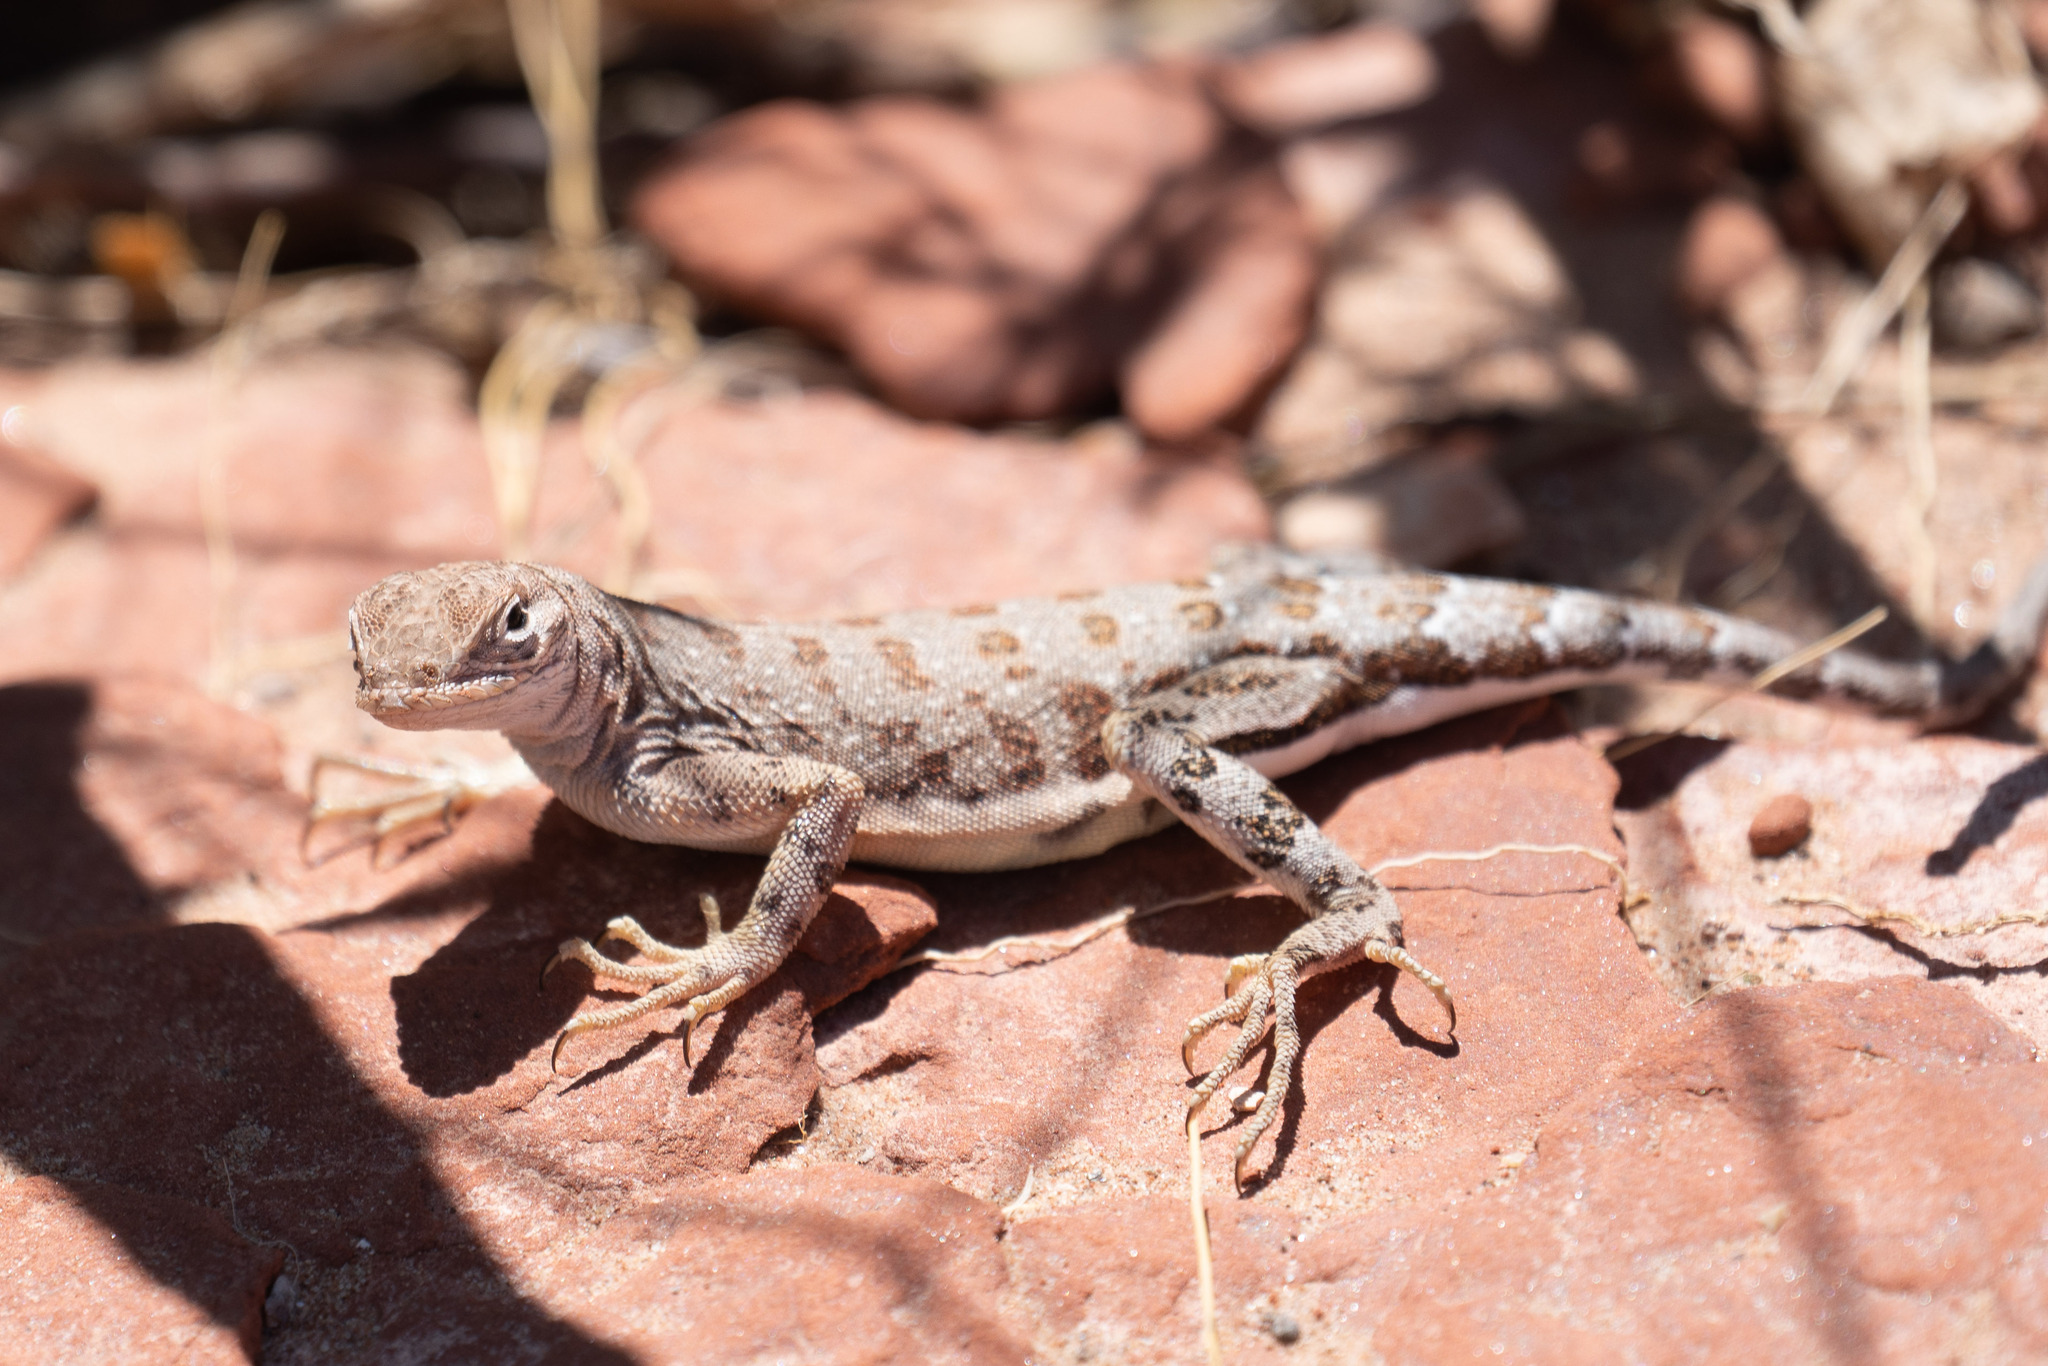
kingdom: Animalia
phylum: Chordata
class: Squamata
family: Phrynosomatidae
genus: Cophosaurus
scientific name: Cophosaurus texanus
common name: Greater earless lizard
